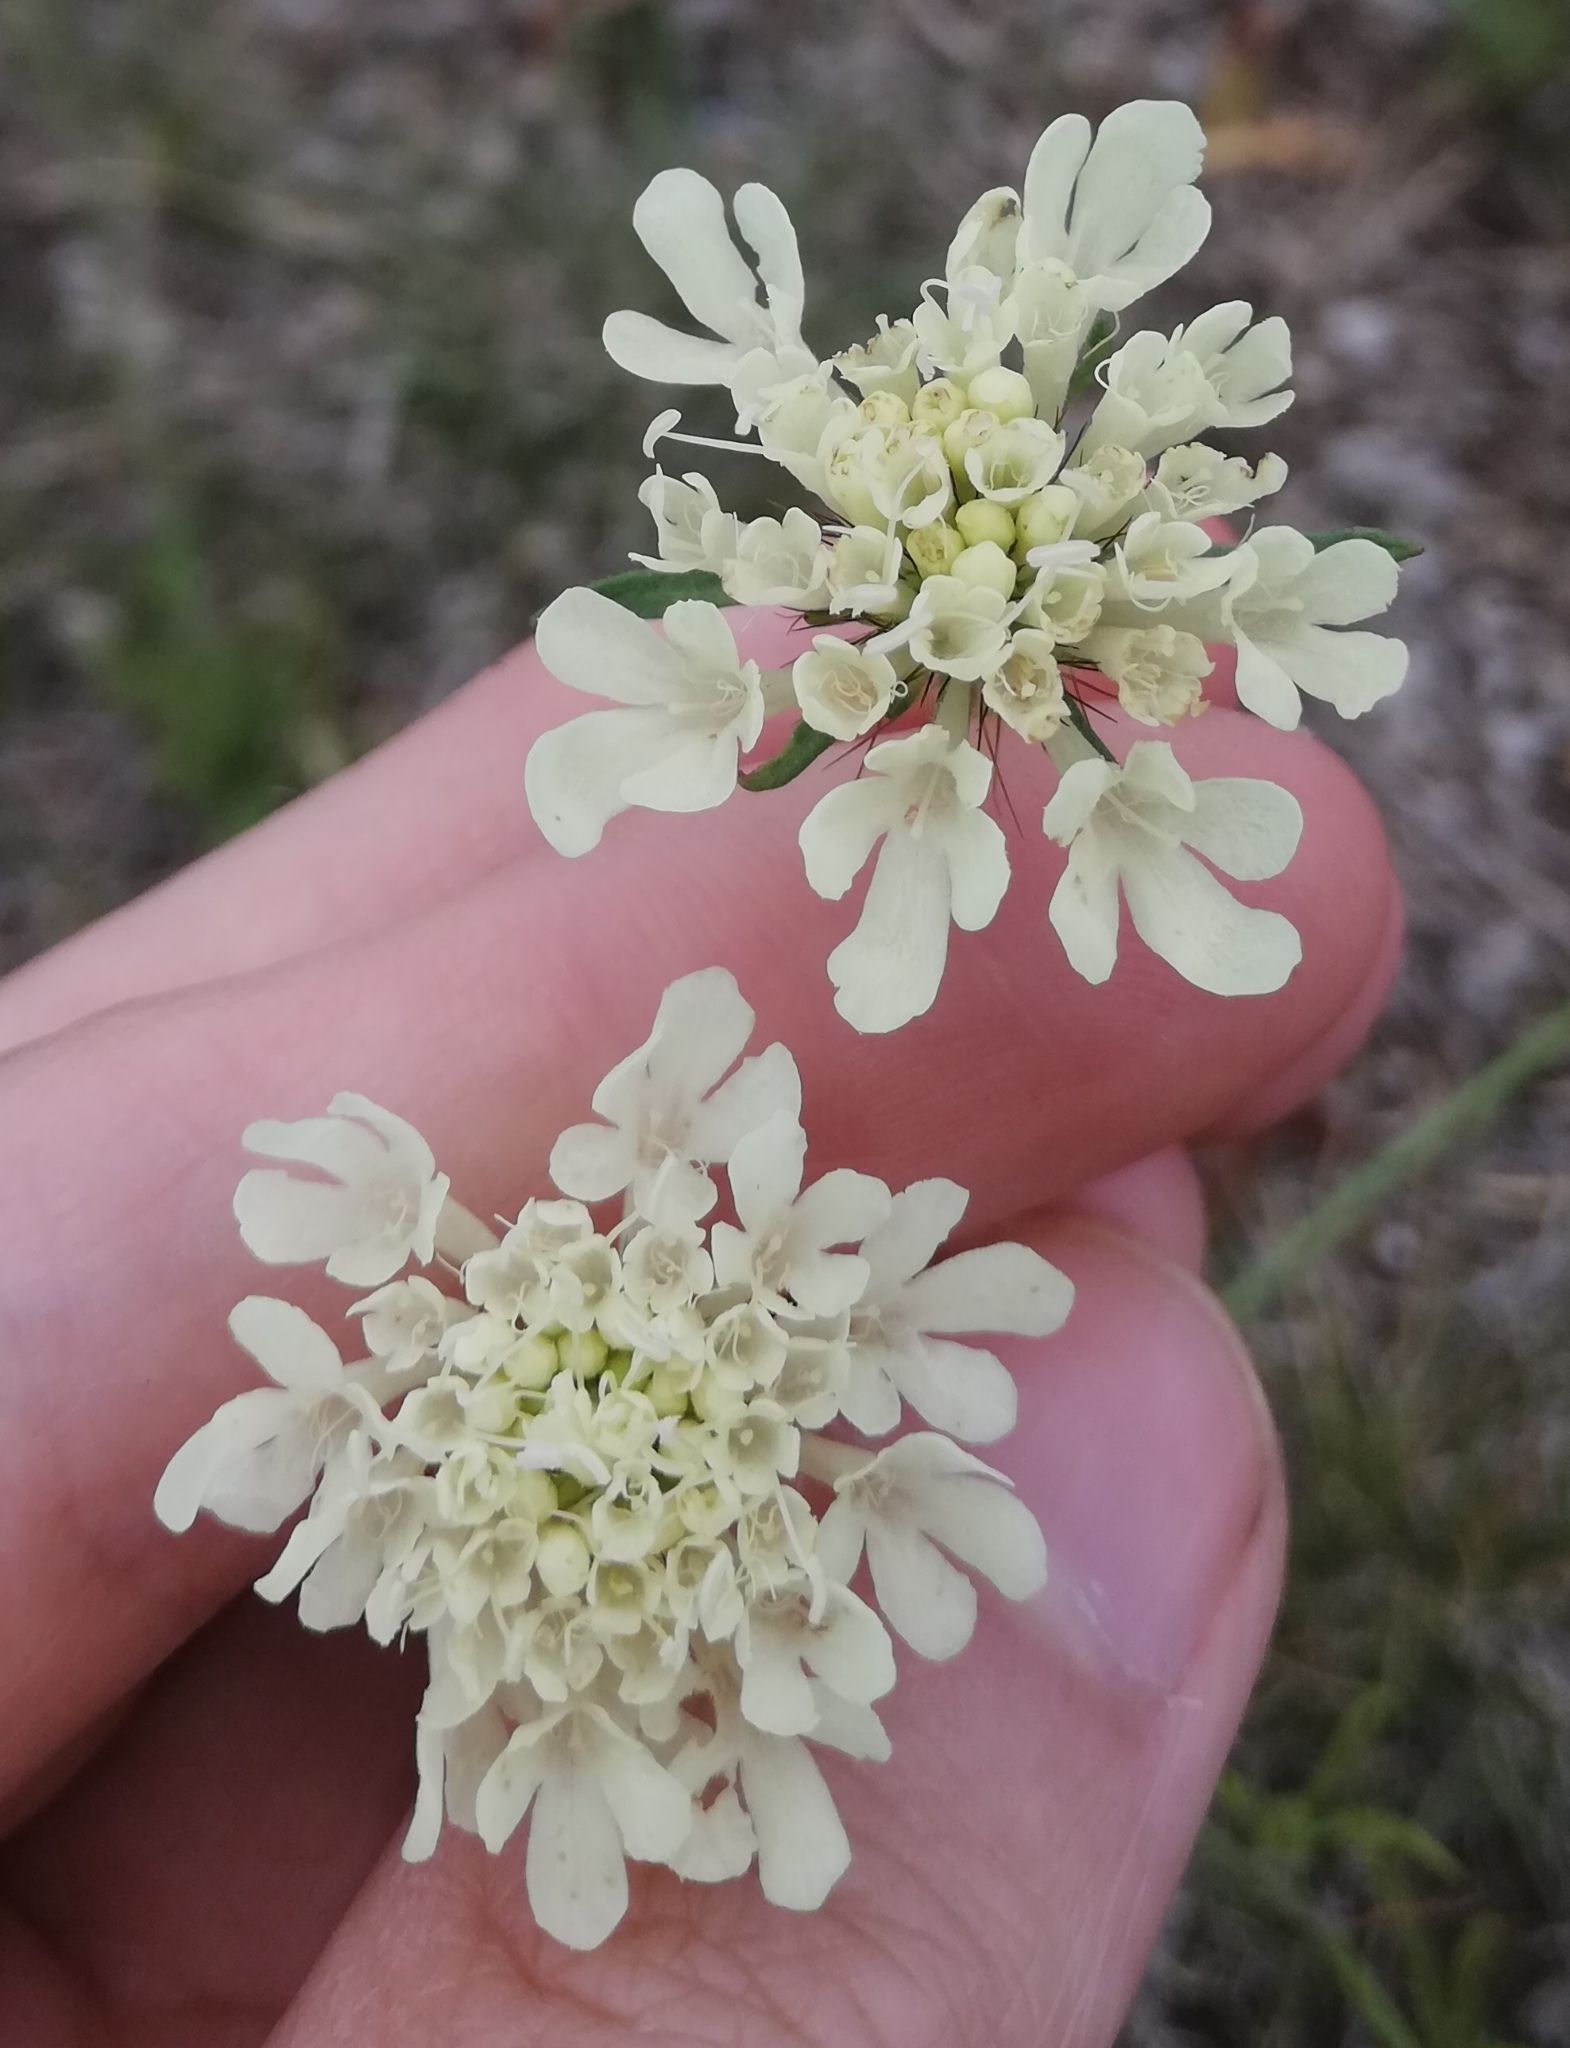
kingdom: Plantae
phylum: Tracheophyta
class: Magnoliopsida
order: Dipsacales
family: Caprifoliaceae
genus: Scabiosa
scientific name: Scabiosa ochroleuca
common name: Cream pincushions
